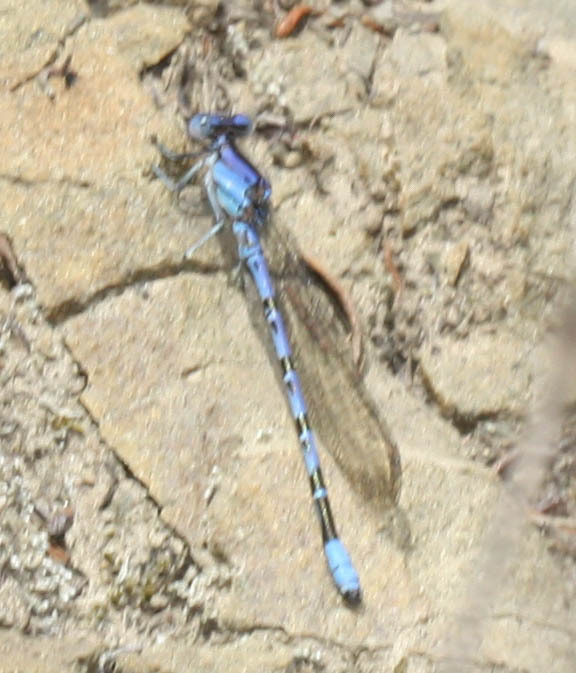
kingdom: Animalia
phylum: Arthropoda
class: Insecta
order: Odonata
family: Coenagrionidae
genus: Argia
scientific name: Argia vivida
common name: Vivid dancer
